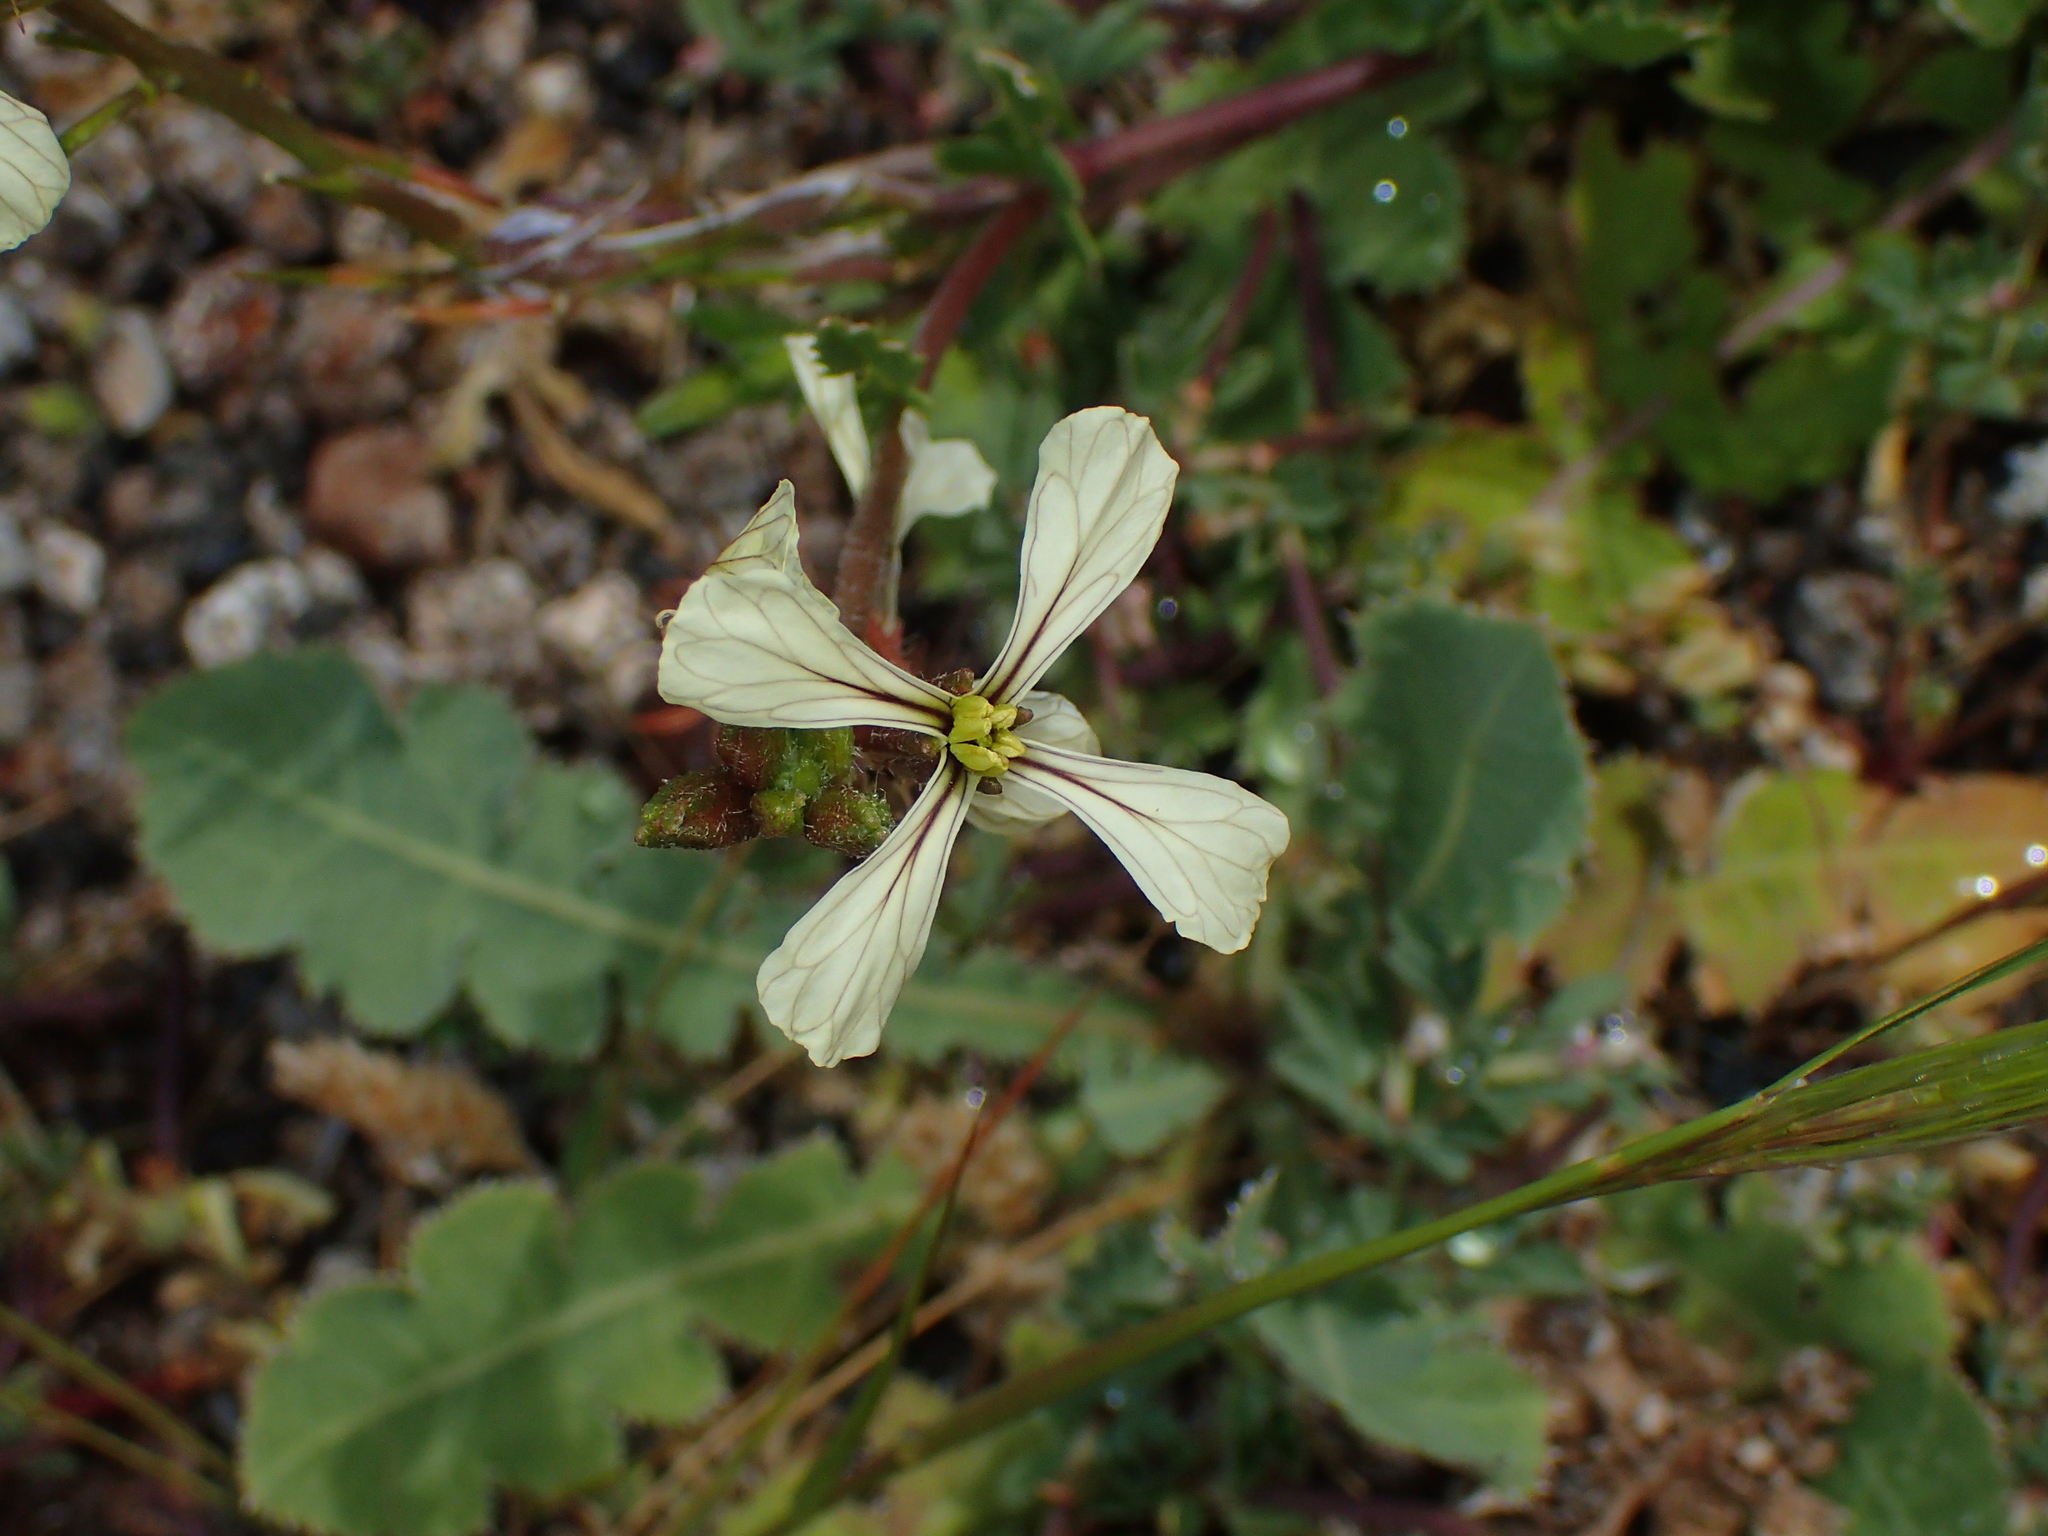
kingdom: Plantae
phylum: Tracheophyta
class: Magnoliopsida
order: Brassicales
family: Brassicaceae
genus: Eruca
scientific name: Eruca vesicaria
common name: Garden rocket
